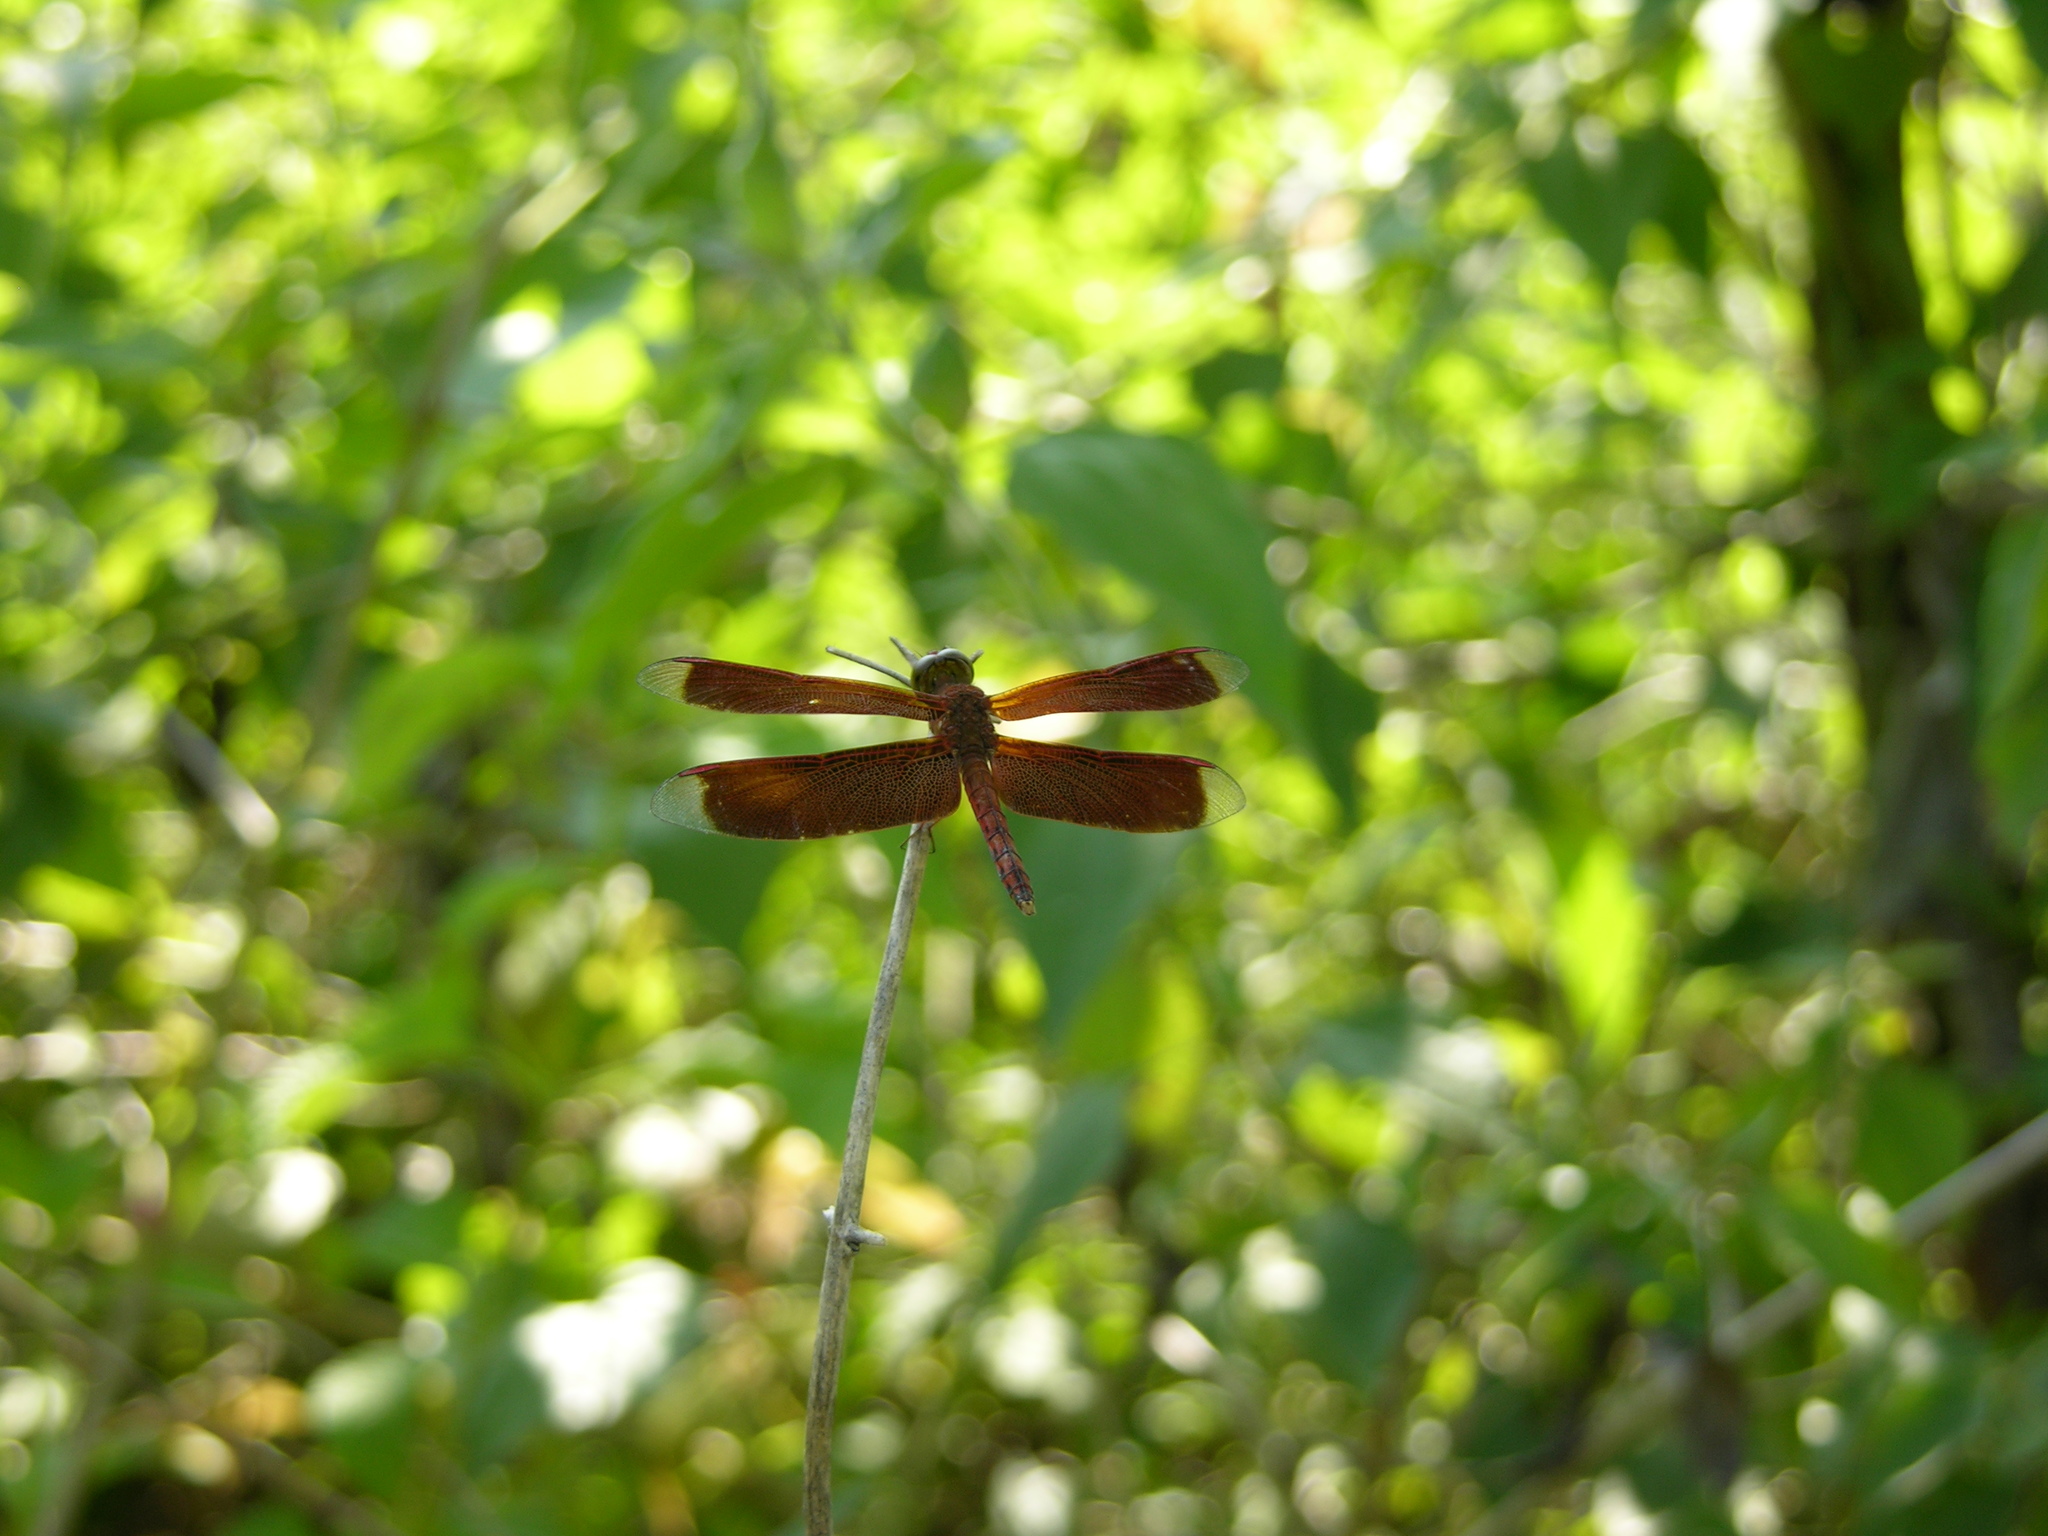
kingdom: Animalia
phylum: Arthropoda
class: Insecta
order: Odonata
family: Libellulidae
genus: Neurothemis
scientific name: Neurothemis terminata
